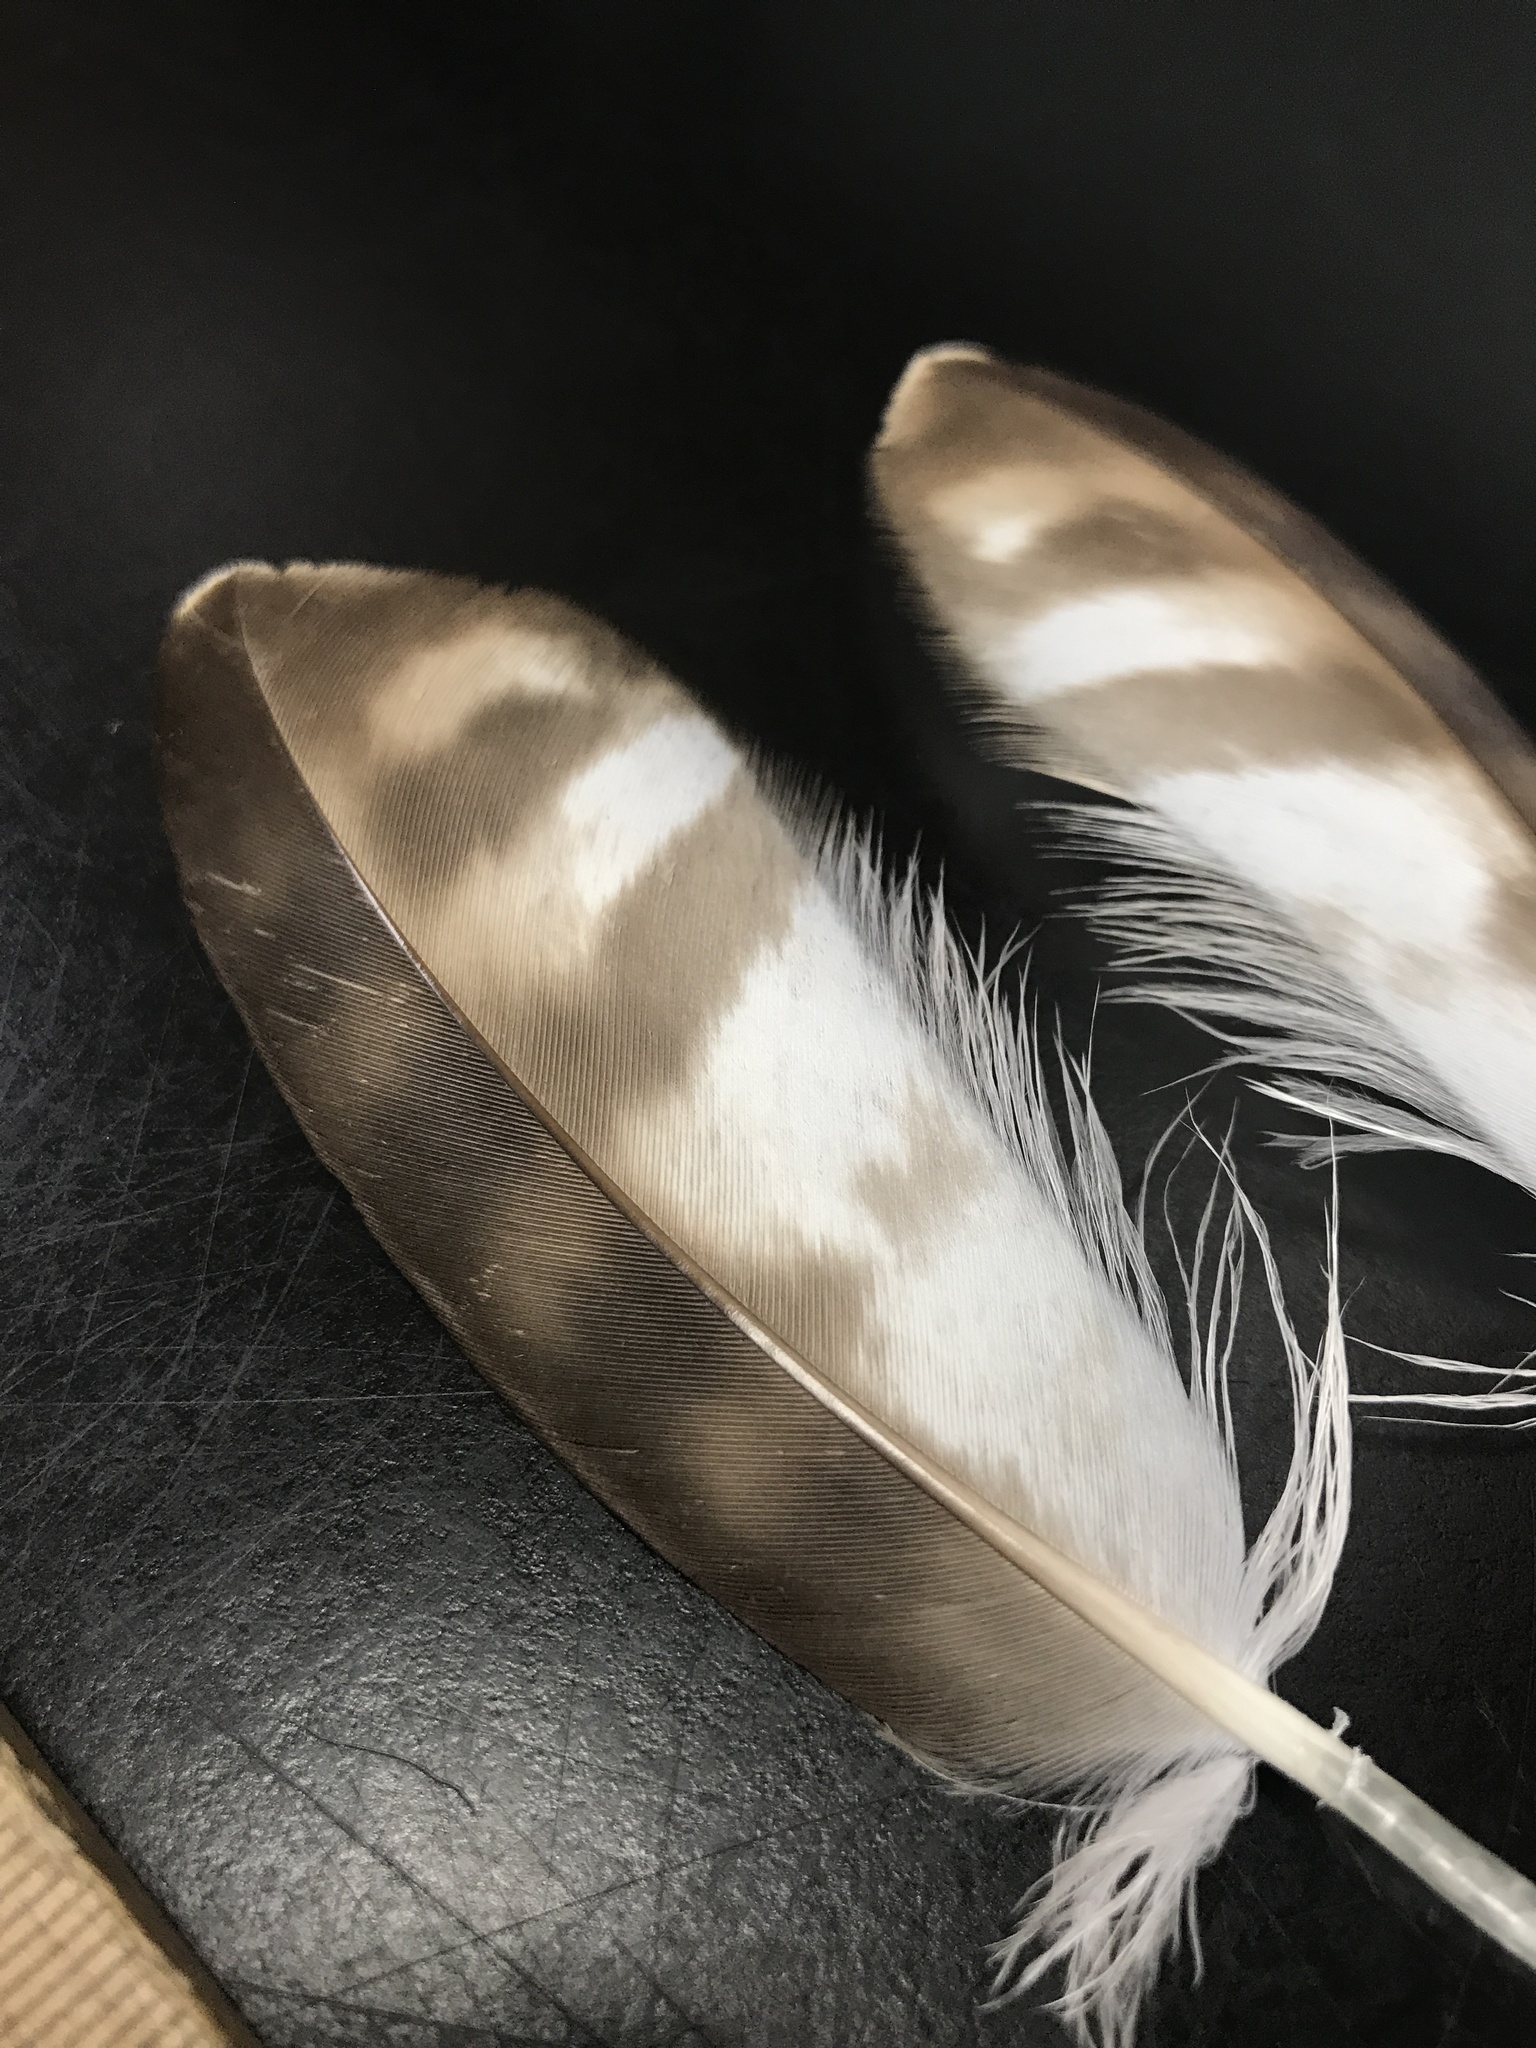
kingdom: Animalia
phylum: Chordata
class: Aves
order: Accipitriformes
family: Accipitridae
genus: Buteo
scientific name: Buteo jamaicensis
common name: Red-tailed hawk
